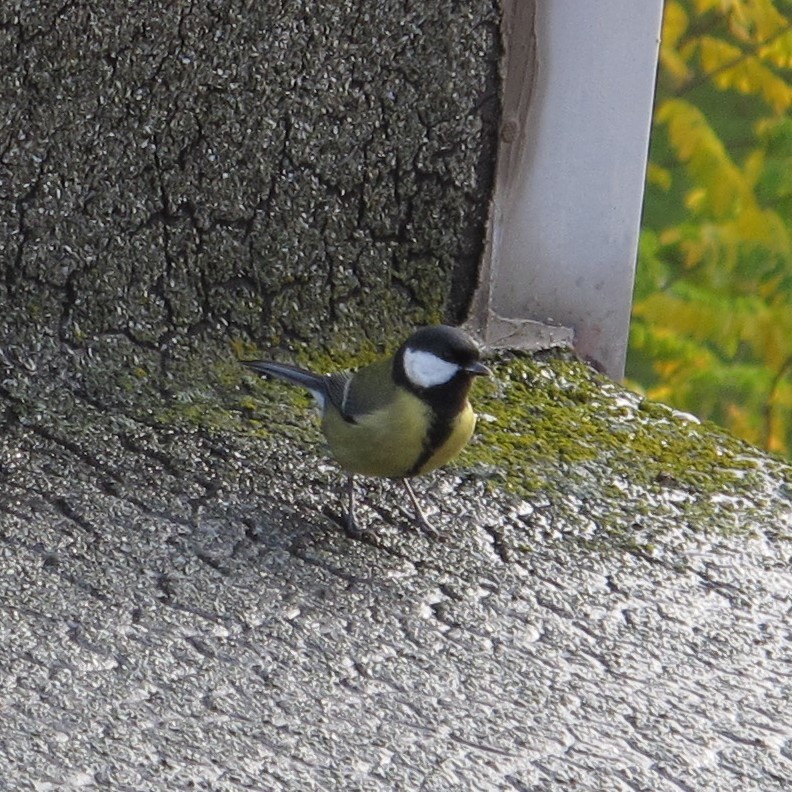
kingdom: Animalia
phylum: Chordata
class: Aves
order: Passeriformes
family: Paridae
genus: Parus
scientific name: Parus major
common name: Great tit
